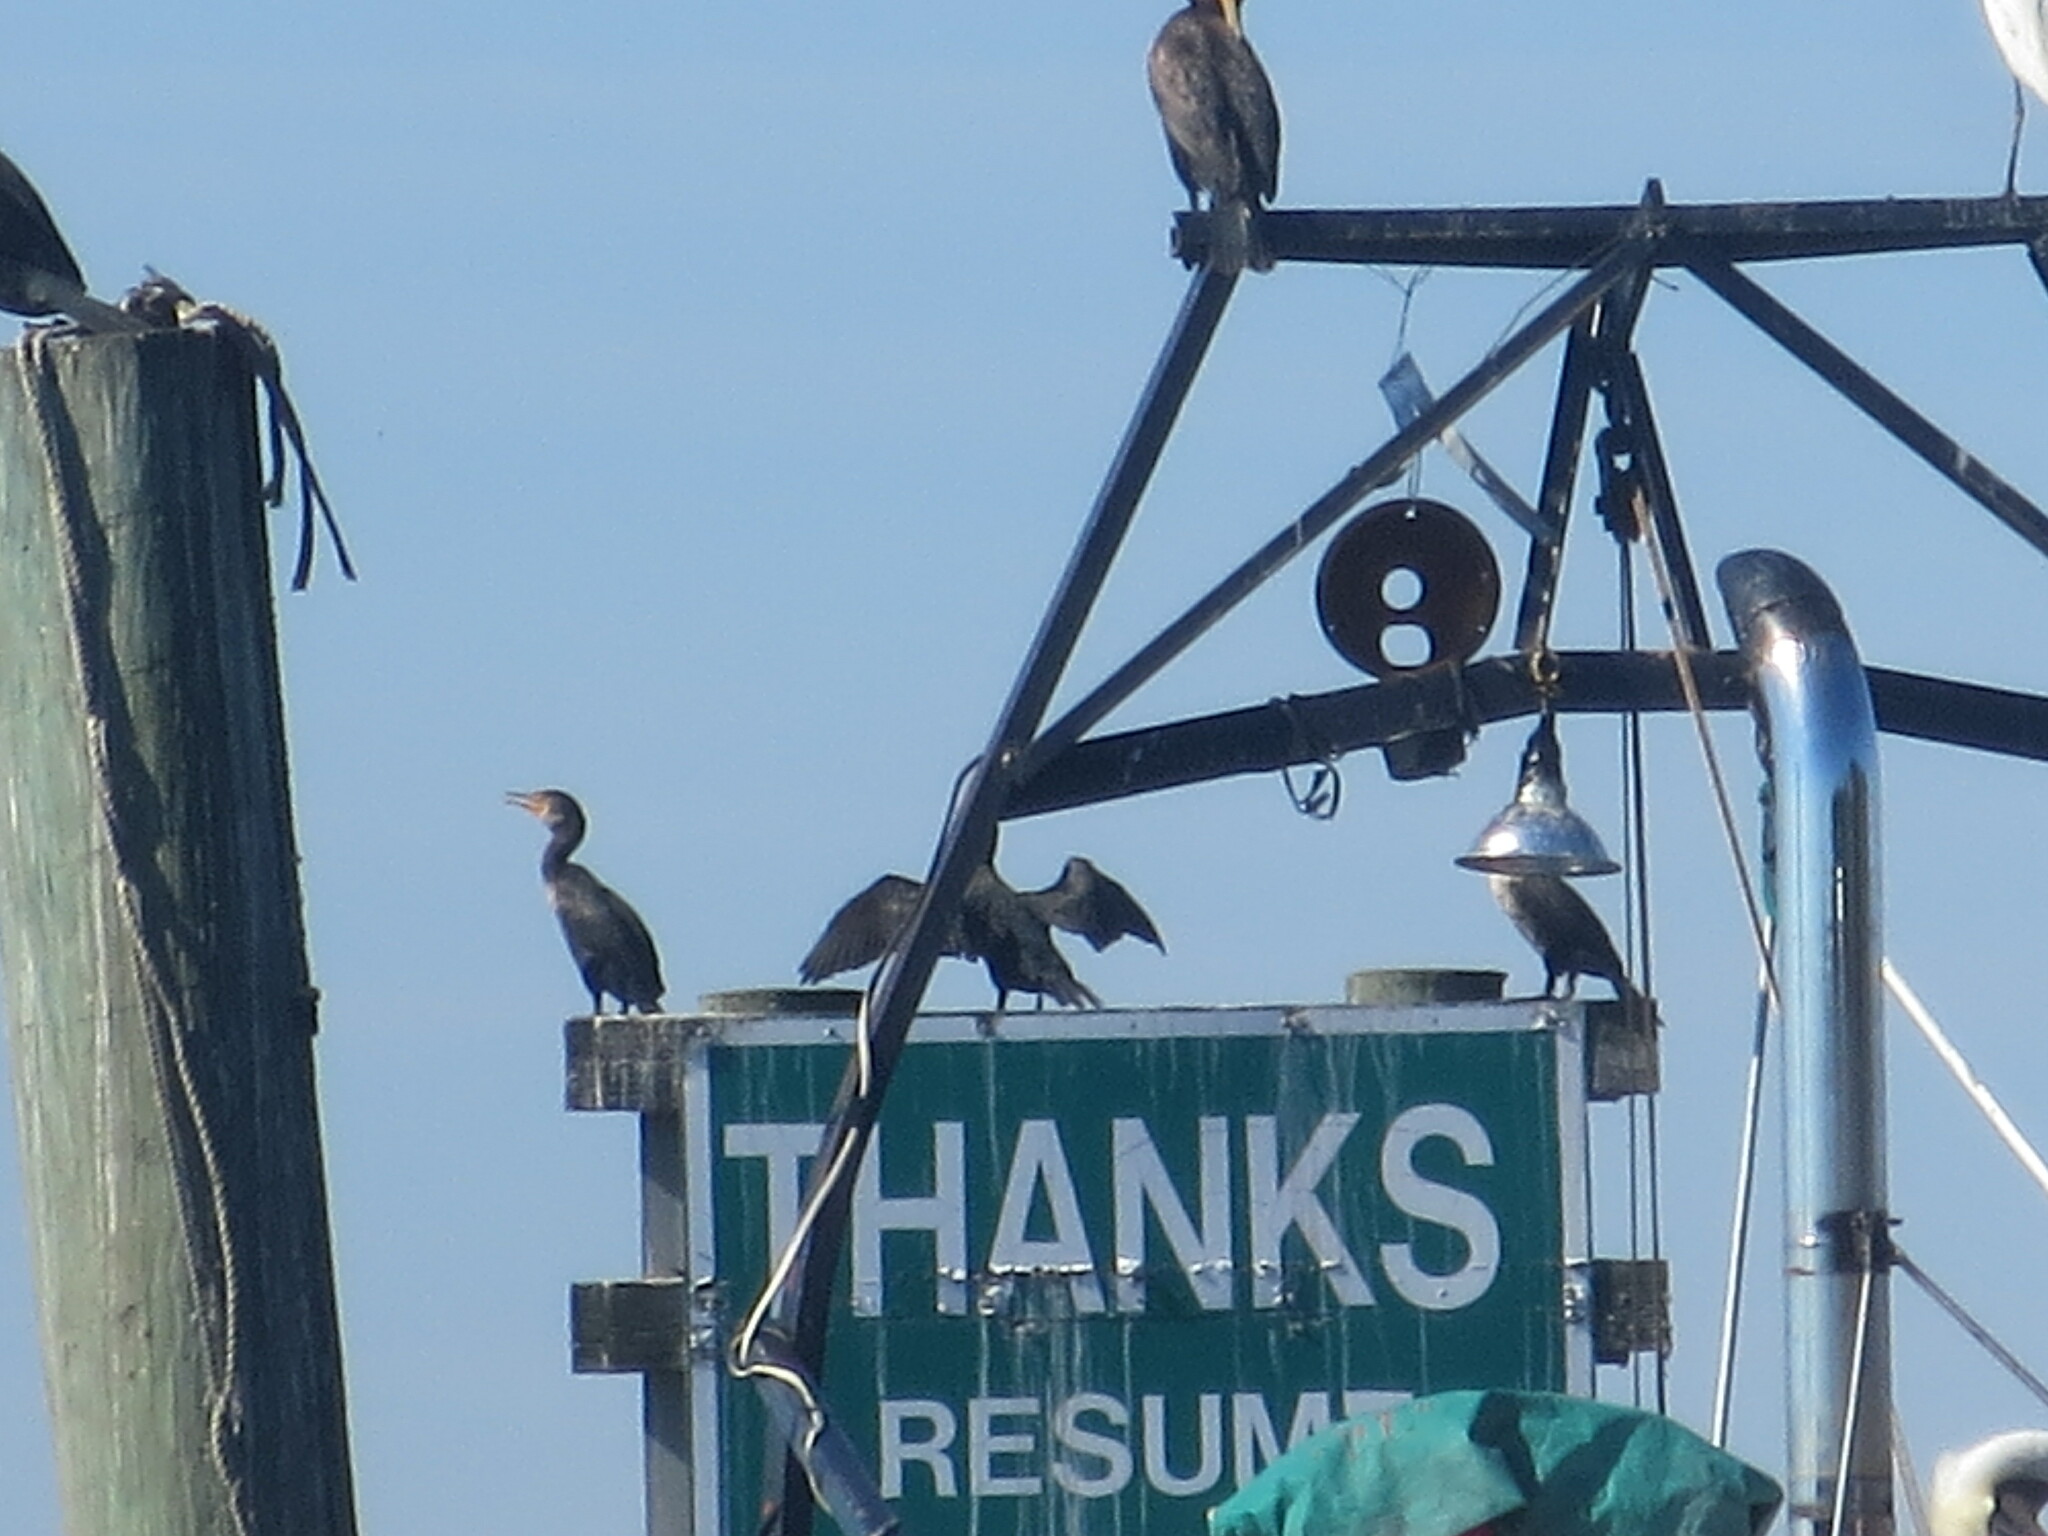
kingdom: Animalia
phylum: Chordata
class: Aves
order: Suliformes
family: Phalacrocoracidae
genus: Phalacrocorax
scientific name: Phalacrocorax auritus
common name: Double-crested cormorant
